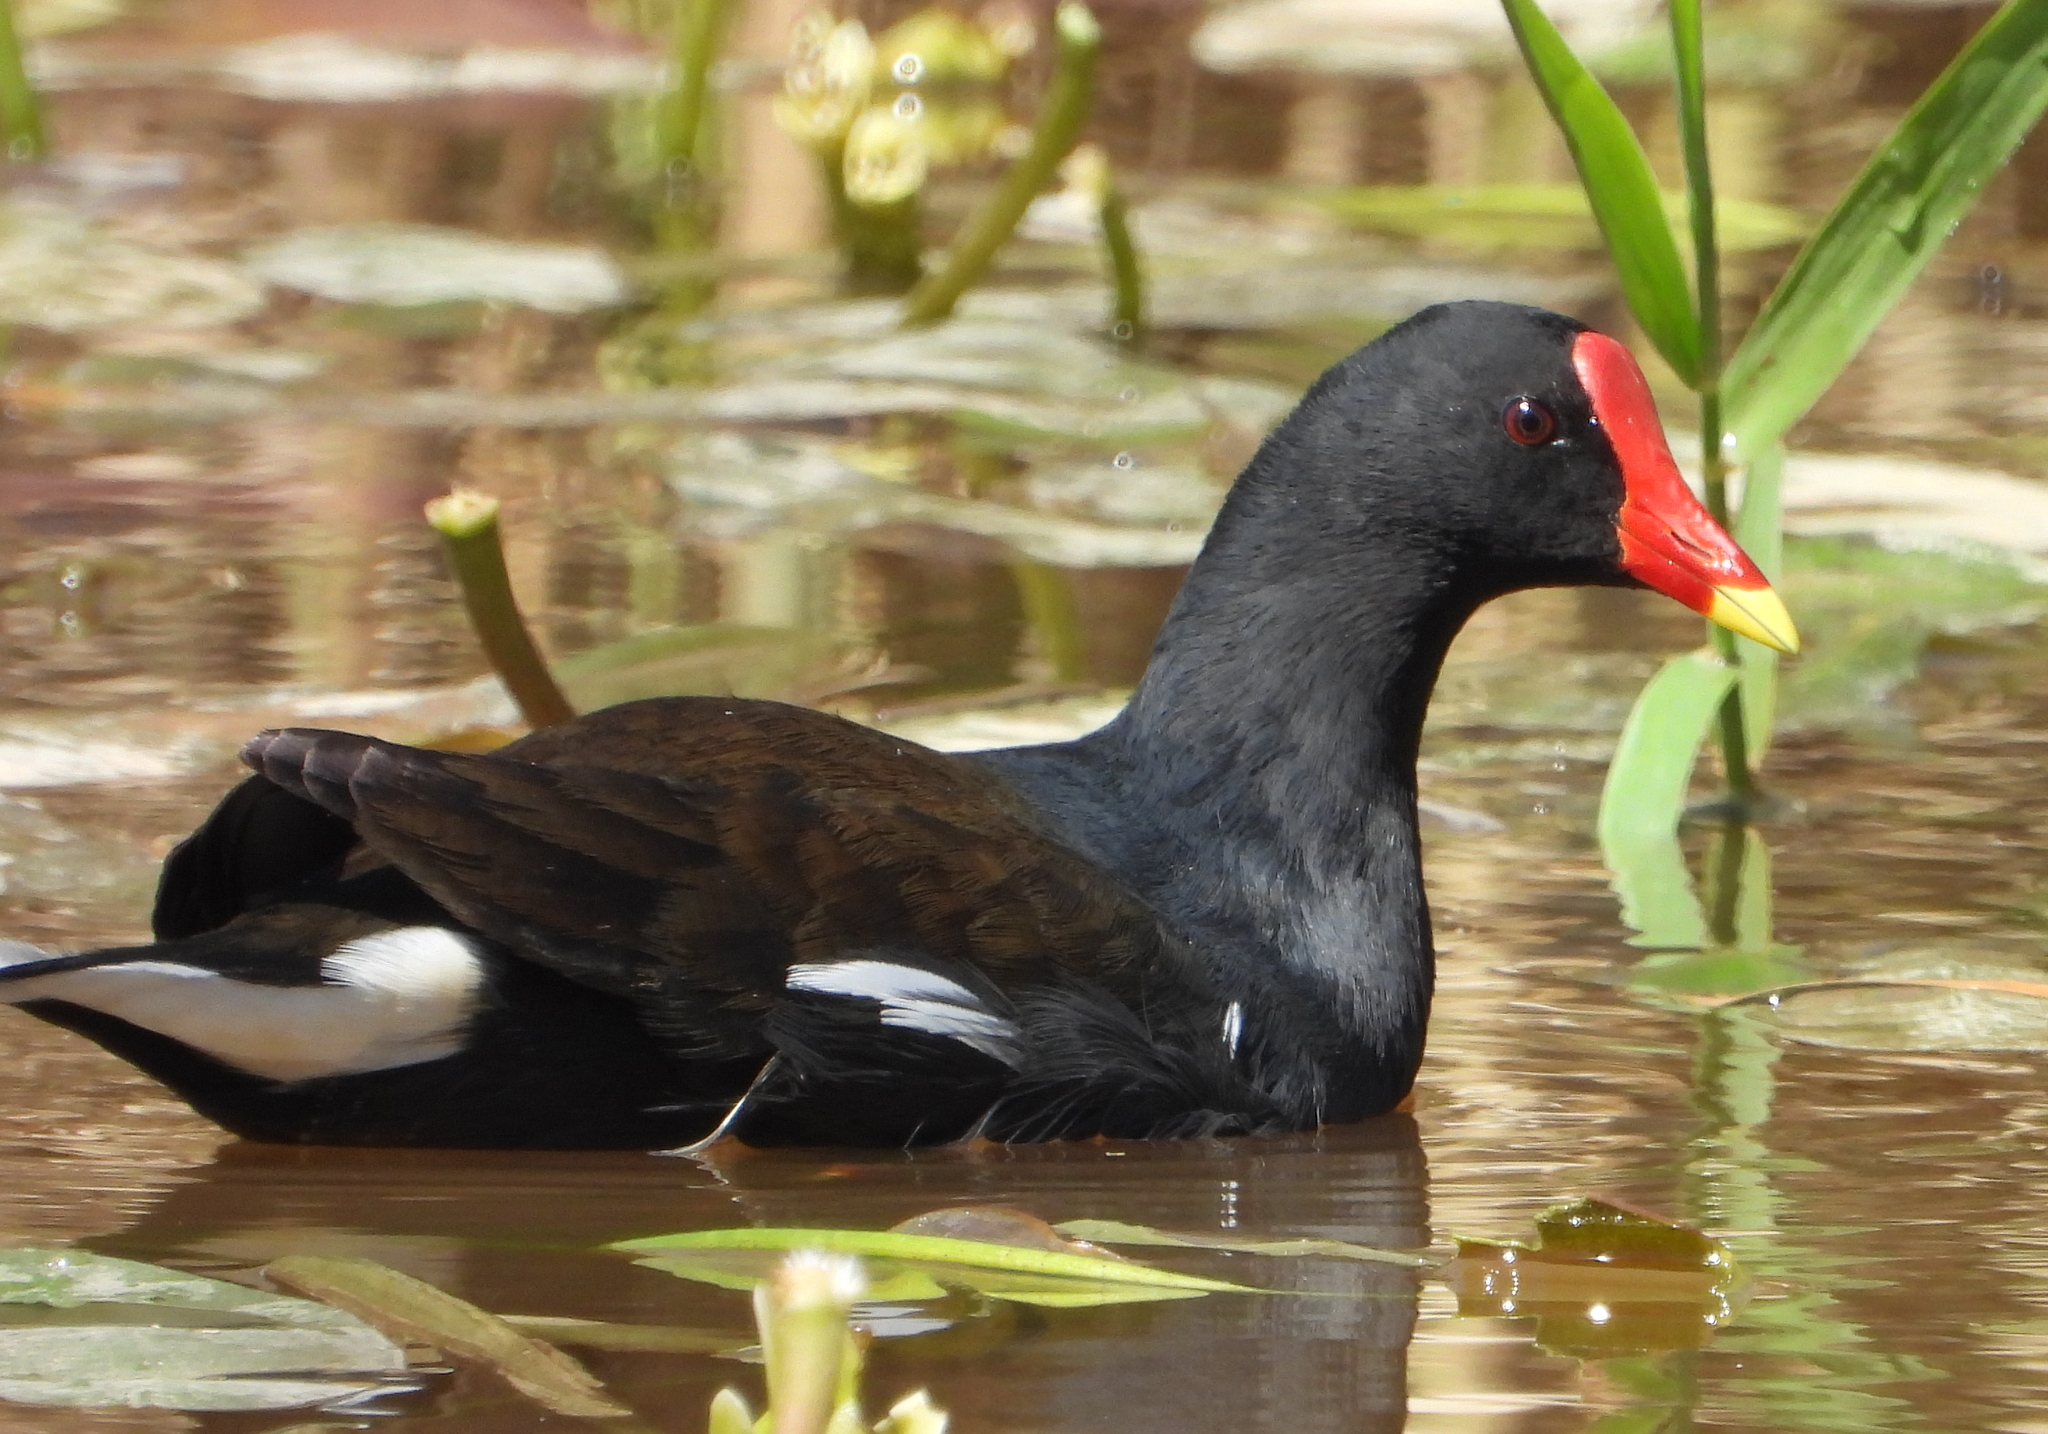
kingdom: Animalia
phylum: Chordata
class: Aves
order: Gruiformes
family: Rallidae
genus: Gallinula
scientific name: Gallinula chloropus
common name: Common moorhen
